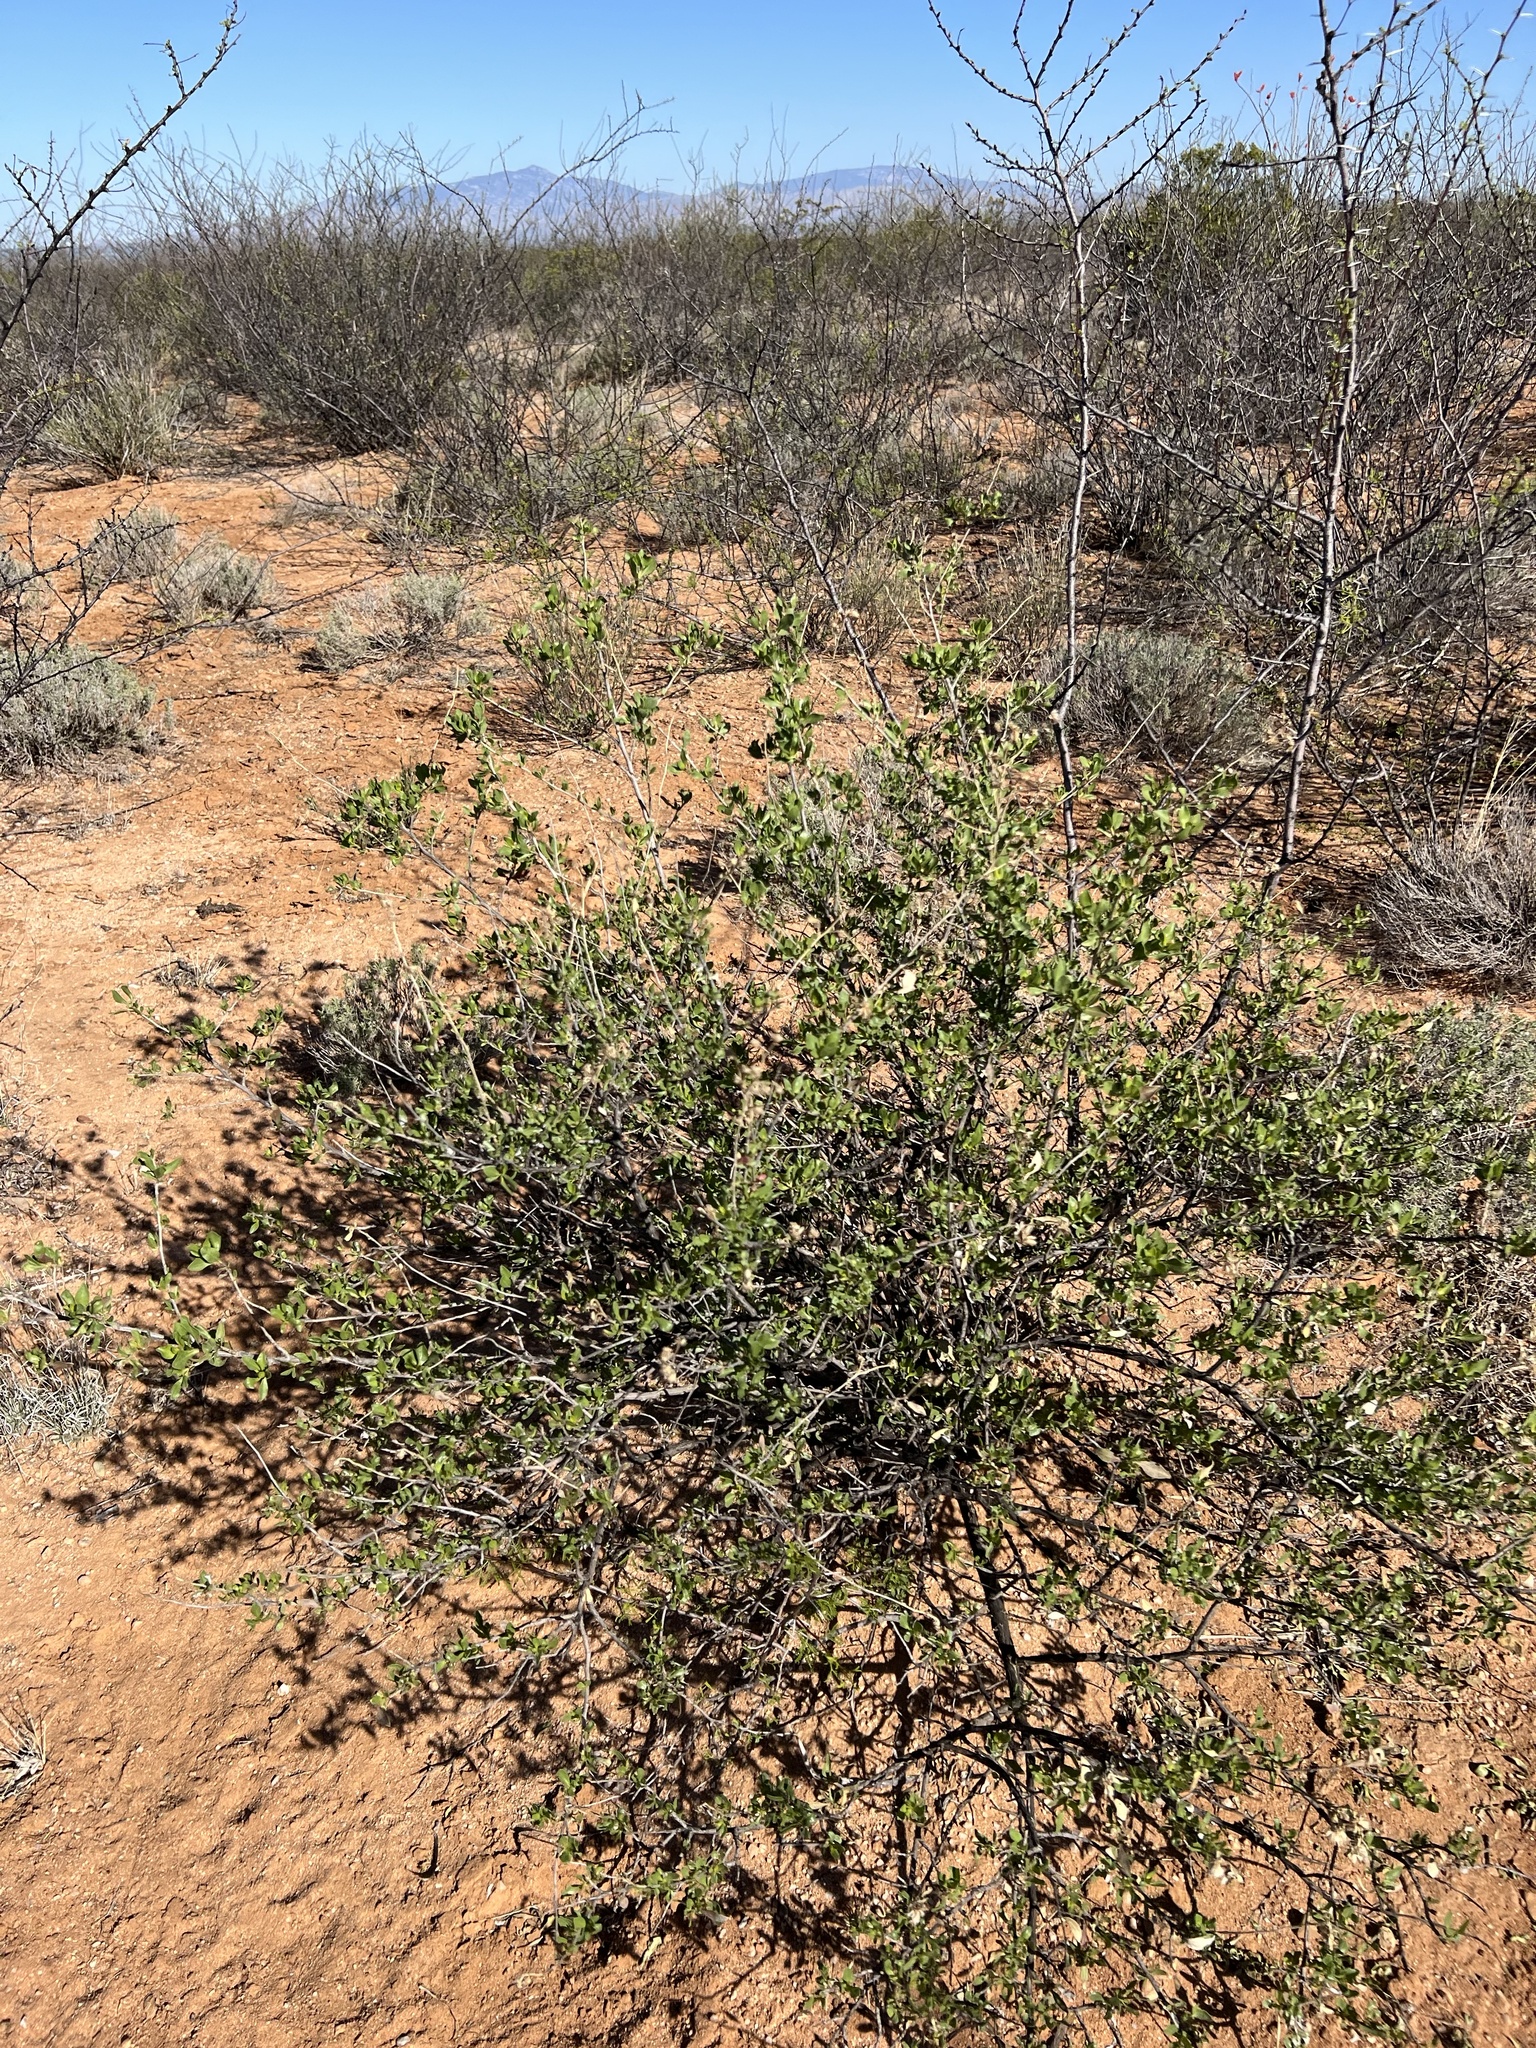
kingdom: Plantae
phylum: Tracheophyta
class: Magnoliopsida
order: Asterales
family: Asteraceae
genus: Flourensia
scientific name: Flourensia cernua
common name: Varnishbush
